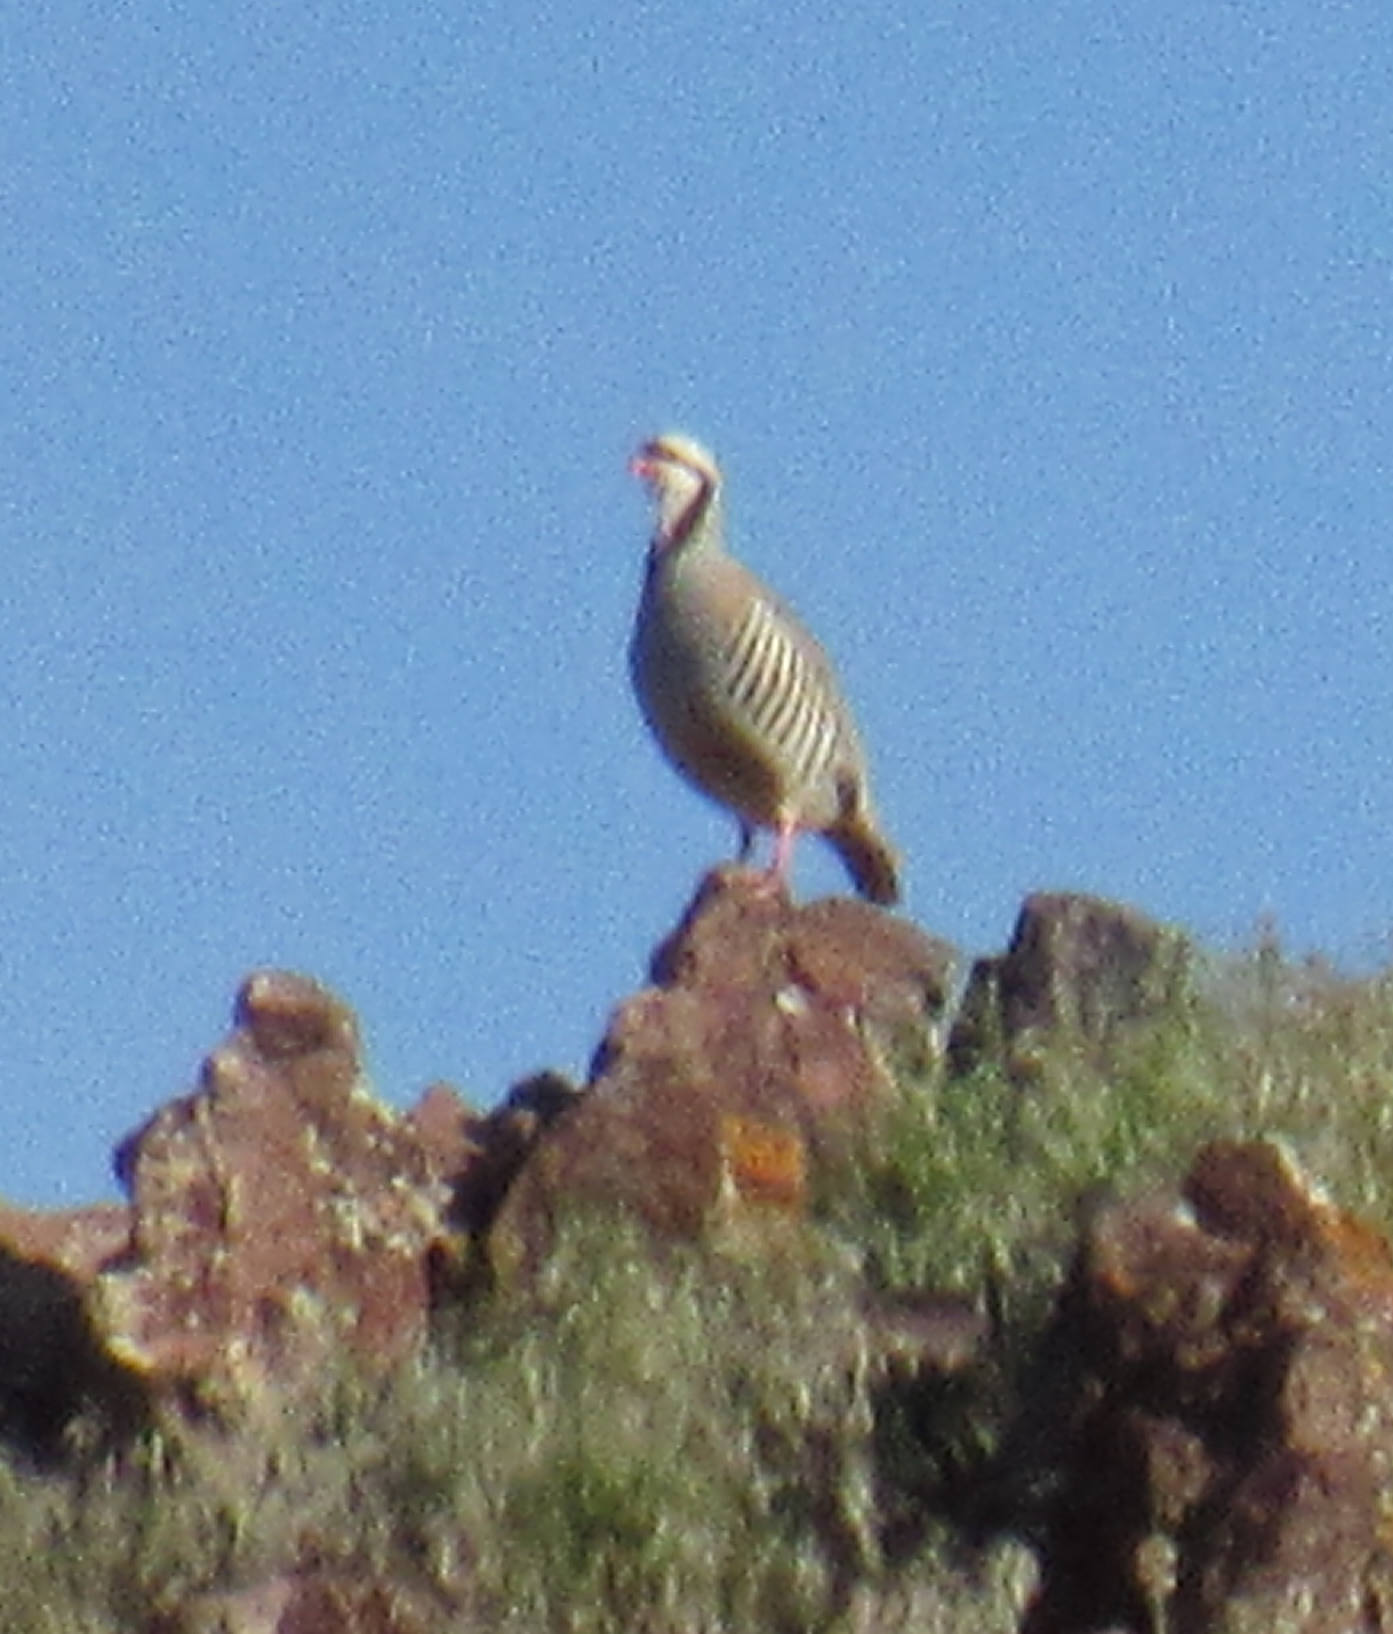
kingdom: Animalia
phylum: Chordata
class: Aves
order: Galliformes
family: Phasianidae
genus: Alectoris
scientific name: Alectoris chukar
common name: Chukar
